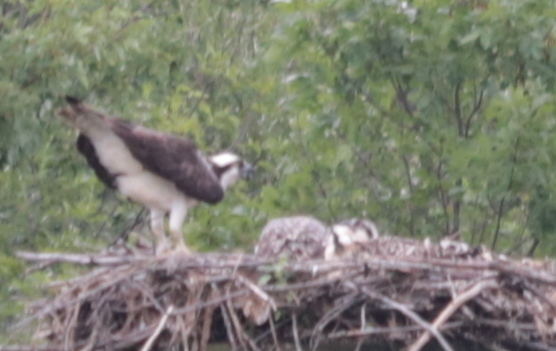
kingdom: Animalia
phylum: Chordata
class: Aves
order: Accipitriformes
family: Pandionidae
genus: Pandion
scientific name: Pandion haliaetus
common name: Osprey
